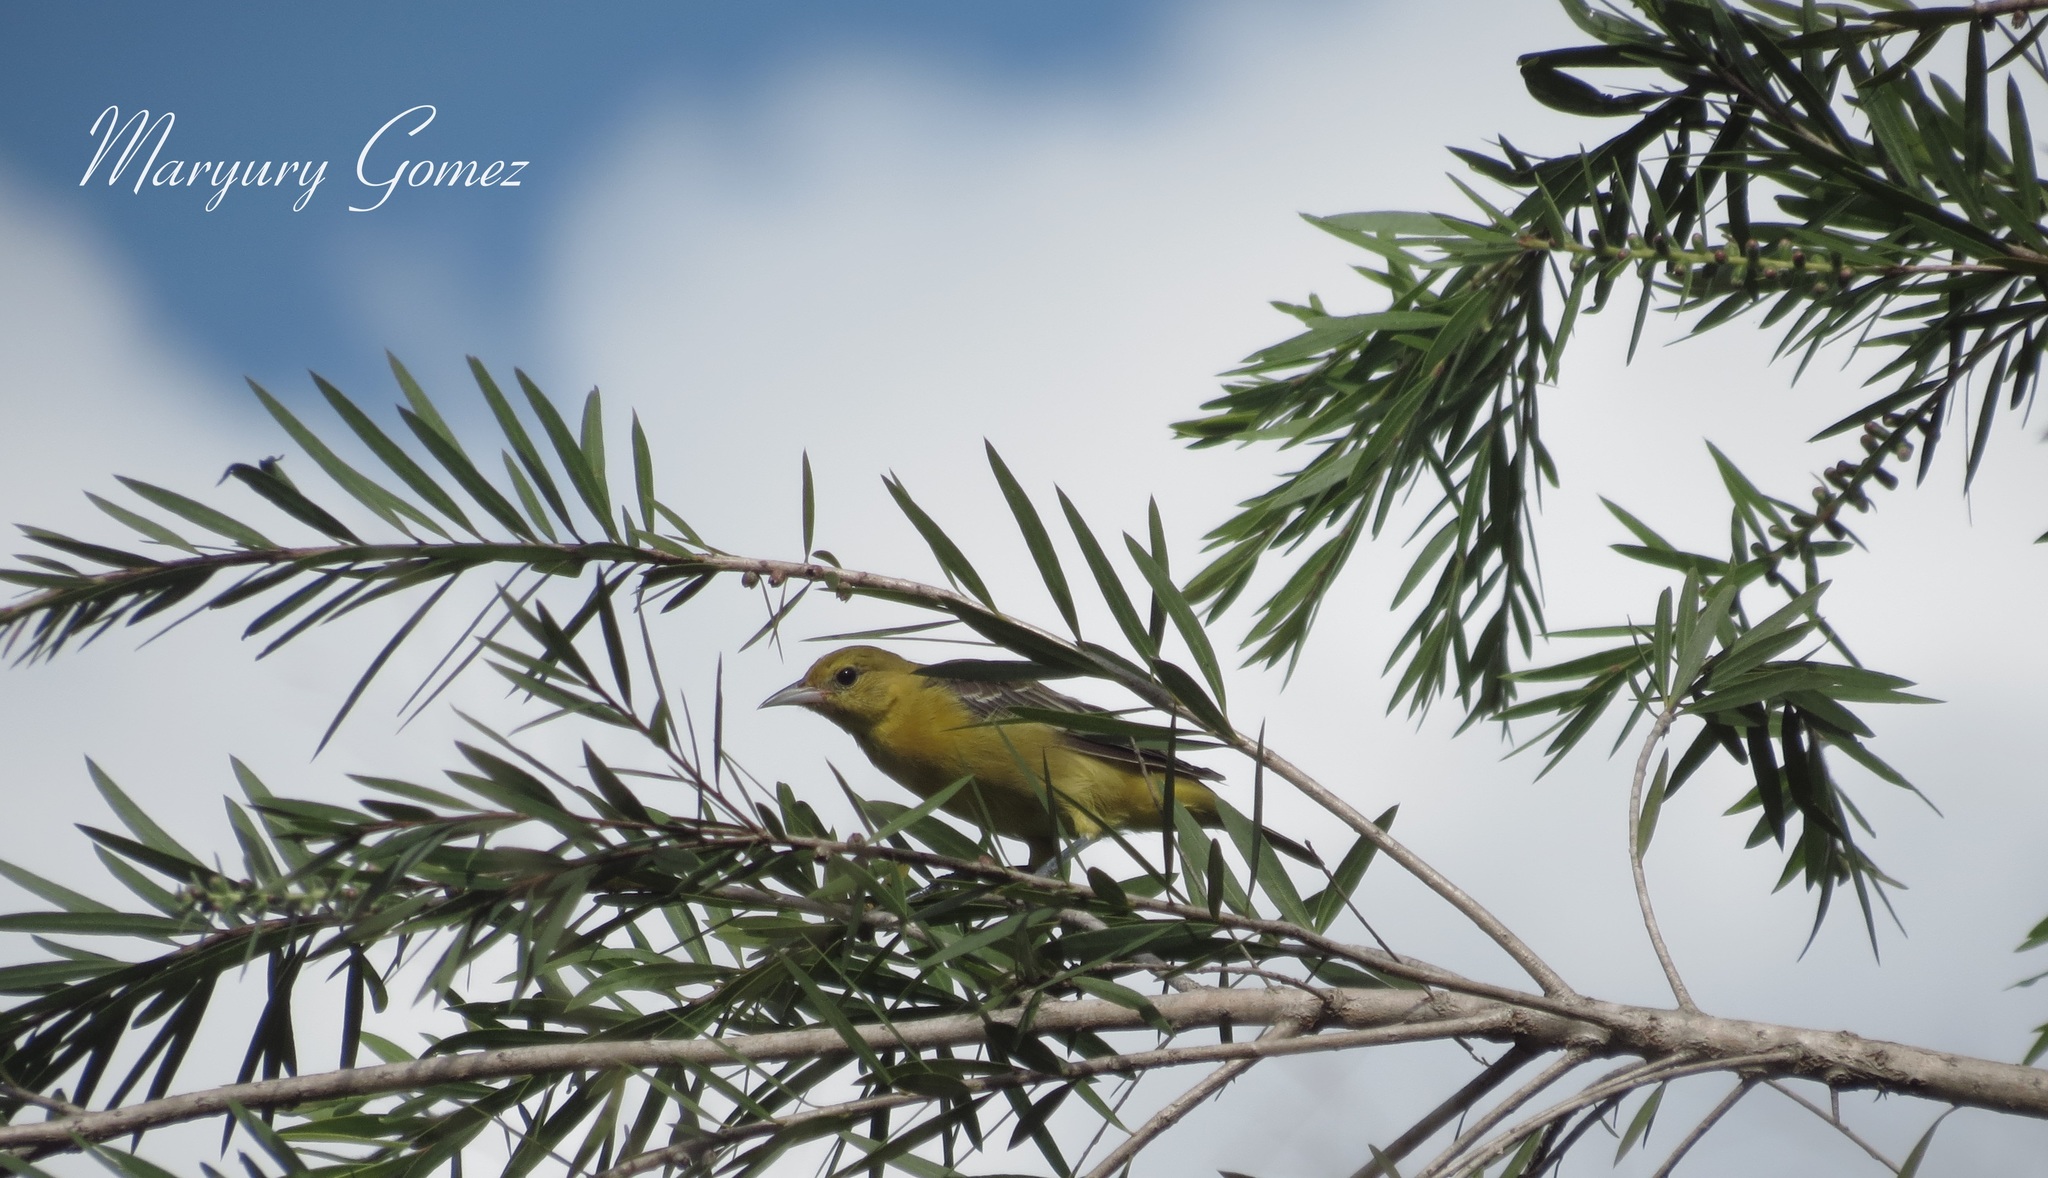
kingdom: Animalia
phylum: Chordata
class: Aves
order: Passeriformes
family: Icteridae
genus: Icterus
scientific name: Icterus spurius
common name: Orchard oriole
